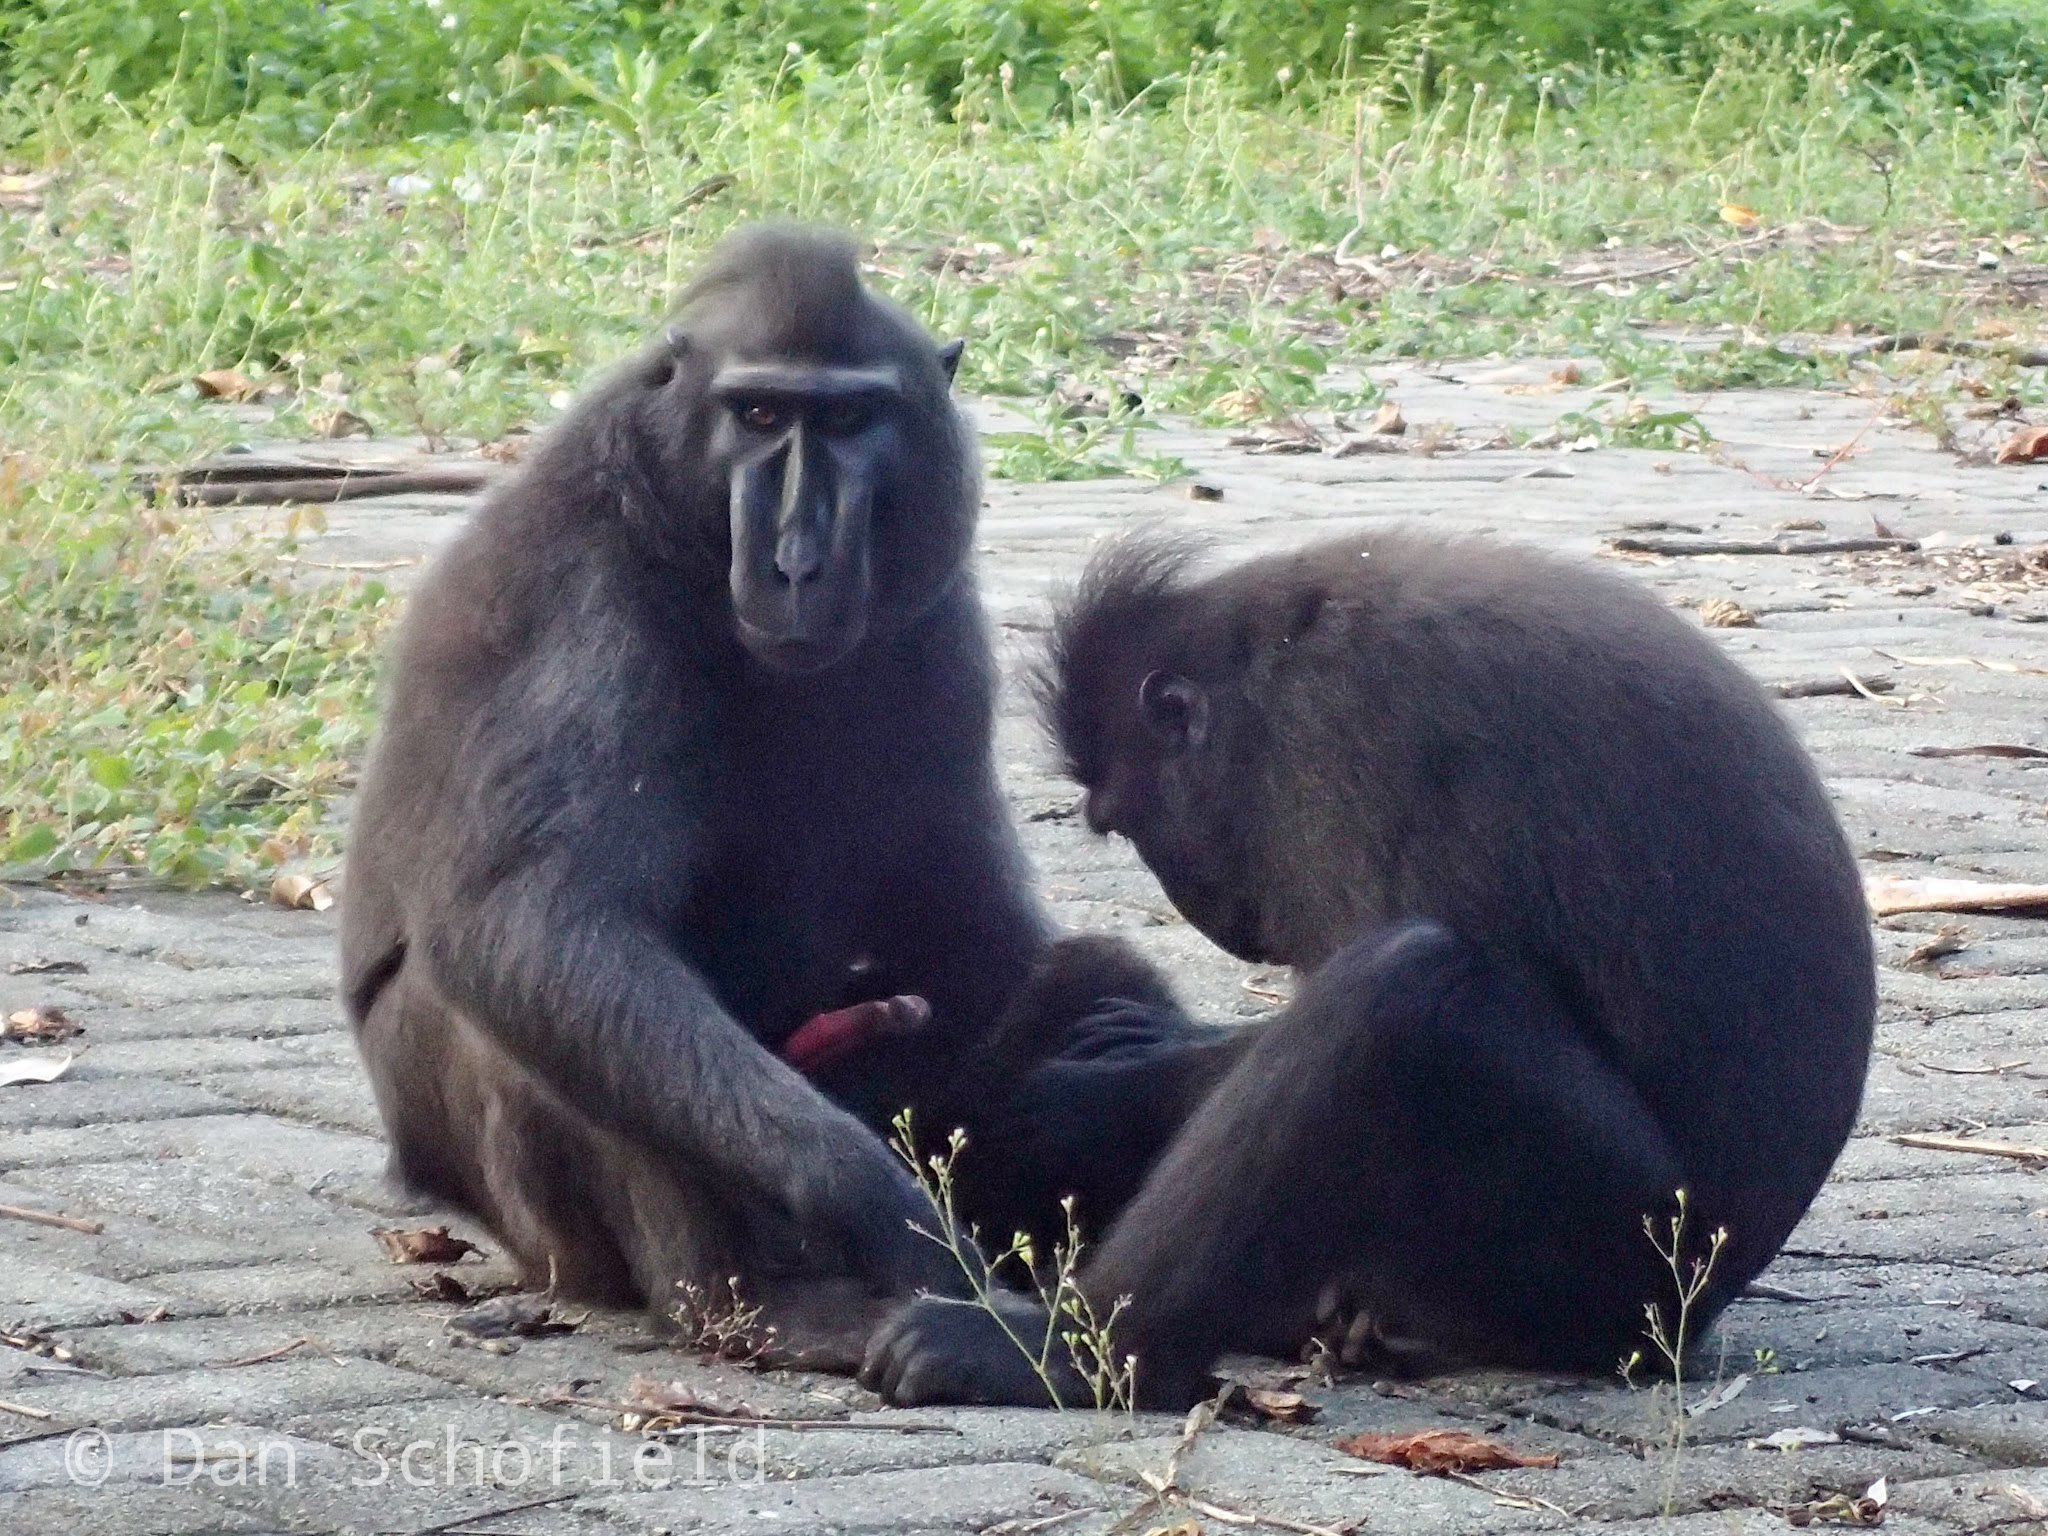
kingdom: Animalia
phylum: Chordata
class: Mammalia
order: Primates
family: Cercopithecidae
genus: Macaca
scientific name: Macaca nigra
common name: Celebes crested macaque
